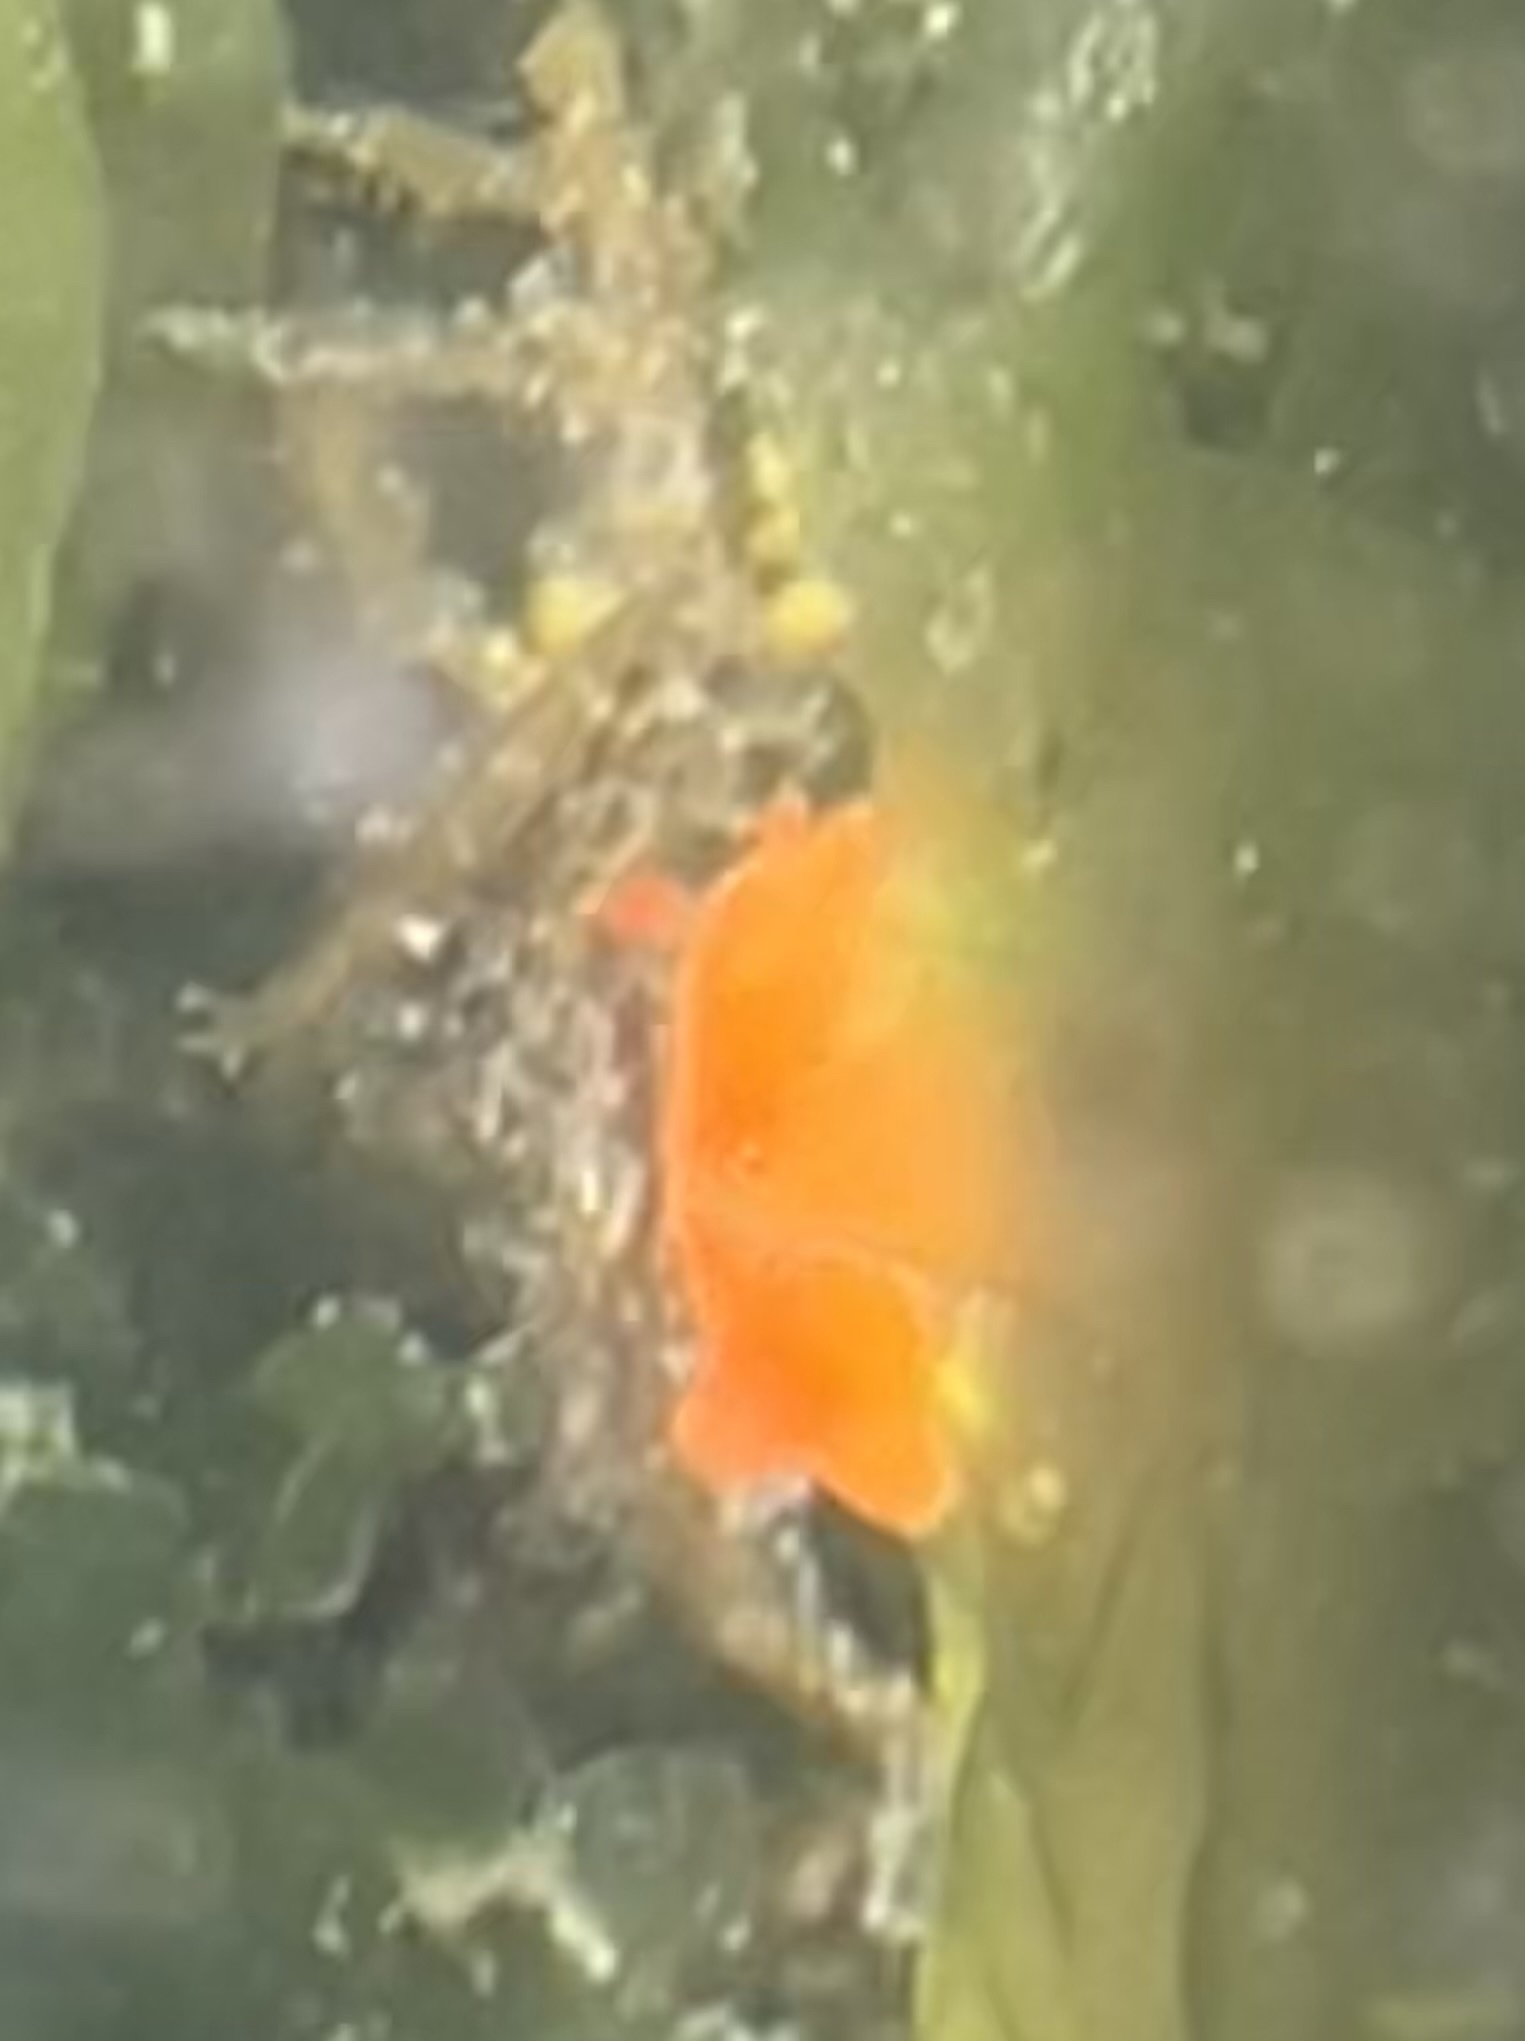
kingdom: Animalia
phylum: Mollusca
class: Gastropoda
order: Nudibranchia
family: Discodorididae
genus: Rostanga
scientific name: Rostanga pulchra
